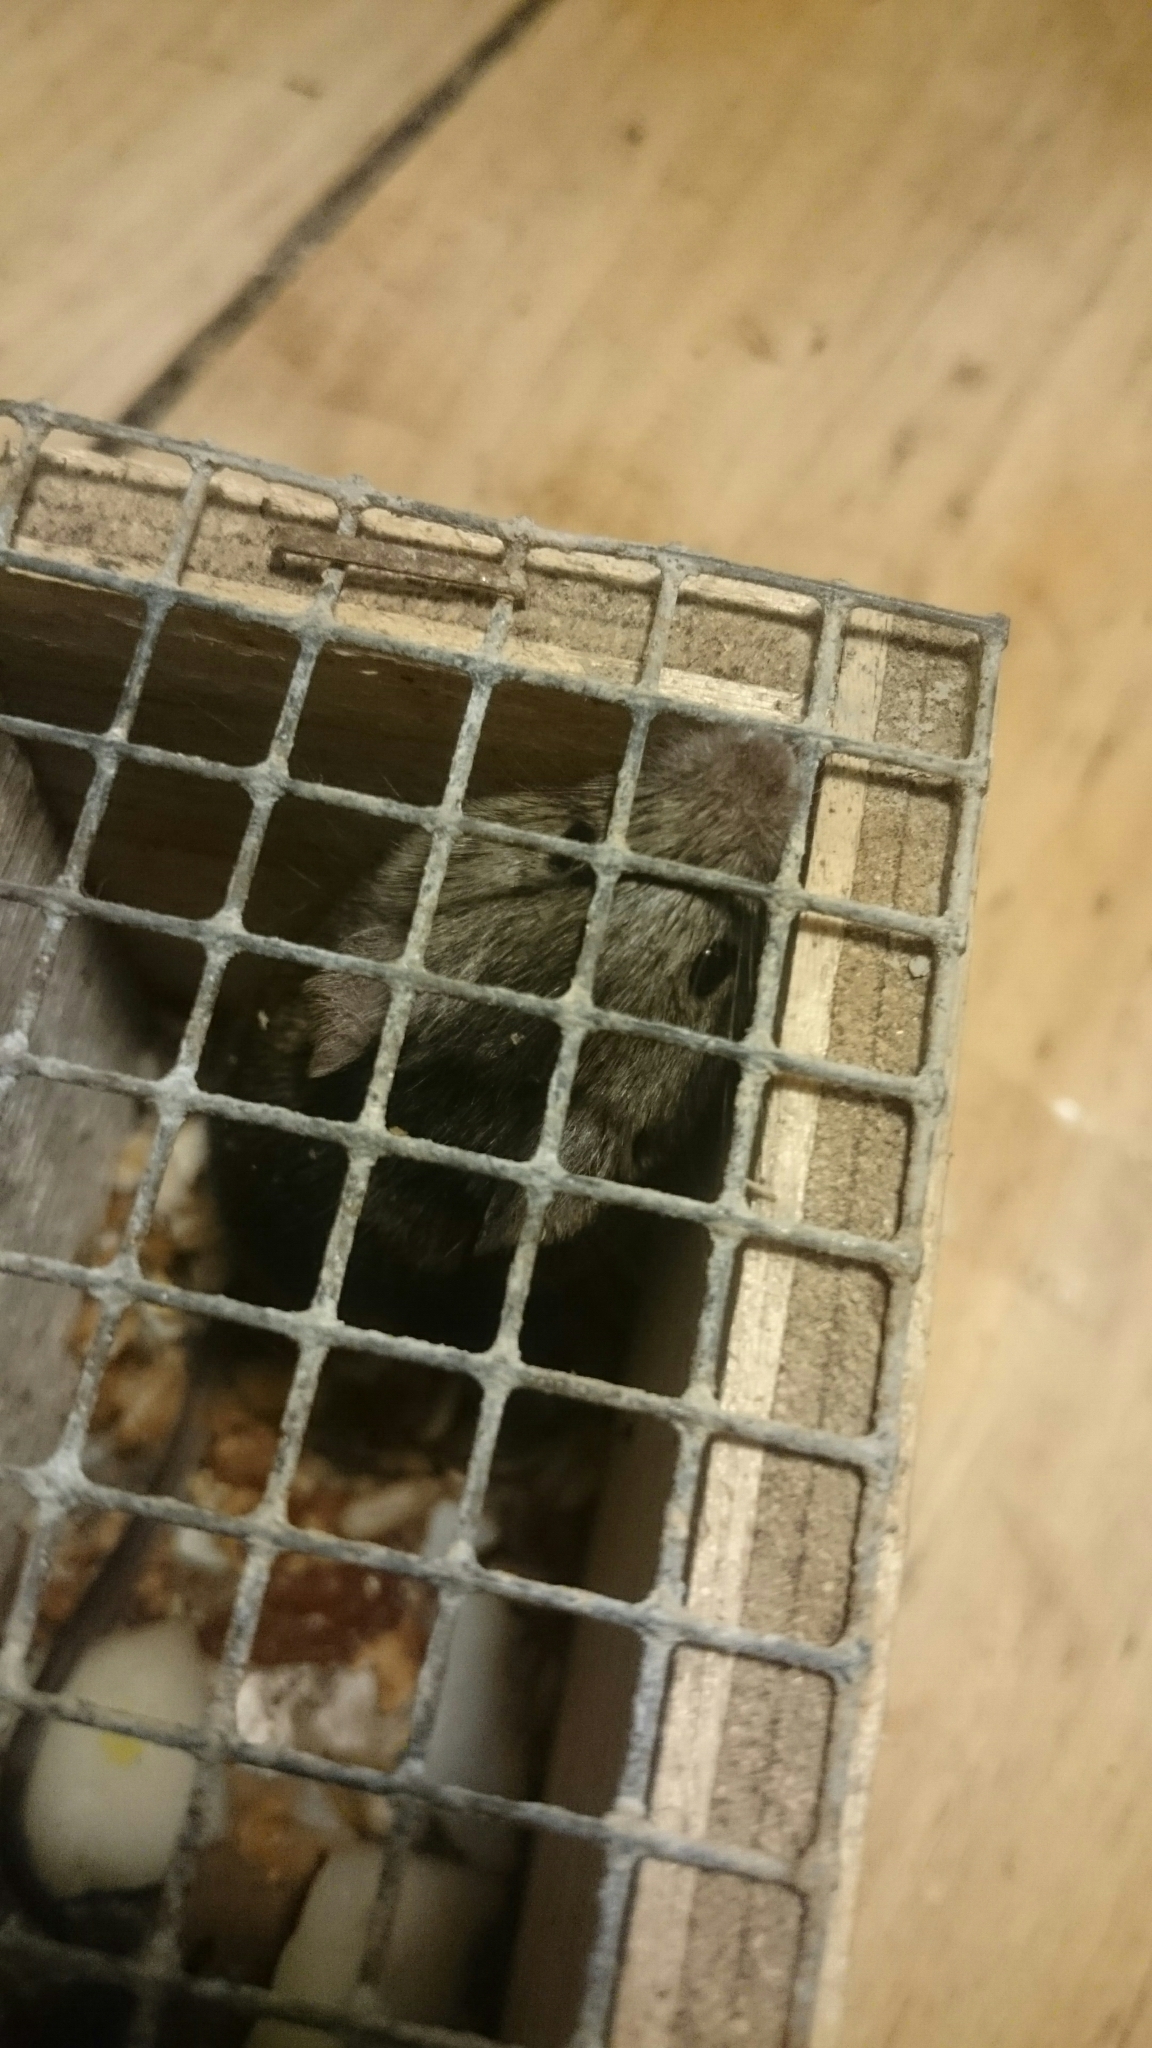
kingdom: Animalia
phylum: Chordata
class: Mammalia
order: Rodentia
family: Muridae
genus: Mus
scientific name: Mus musculus
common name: House mouse
